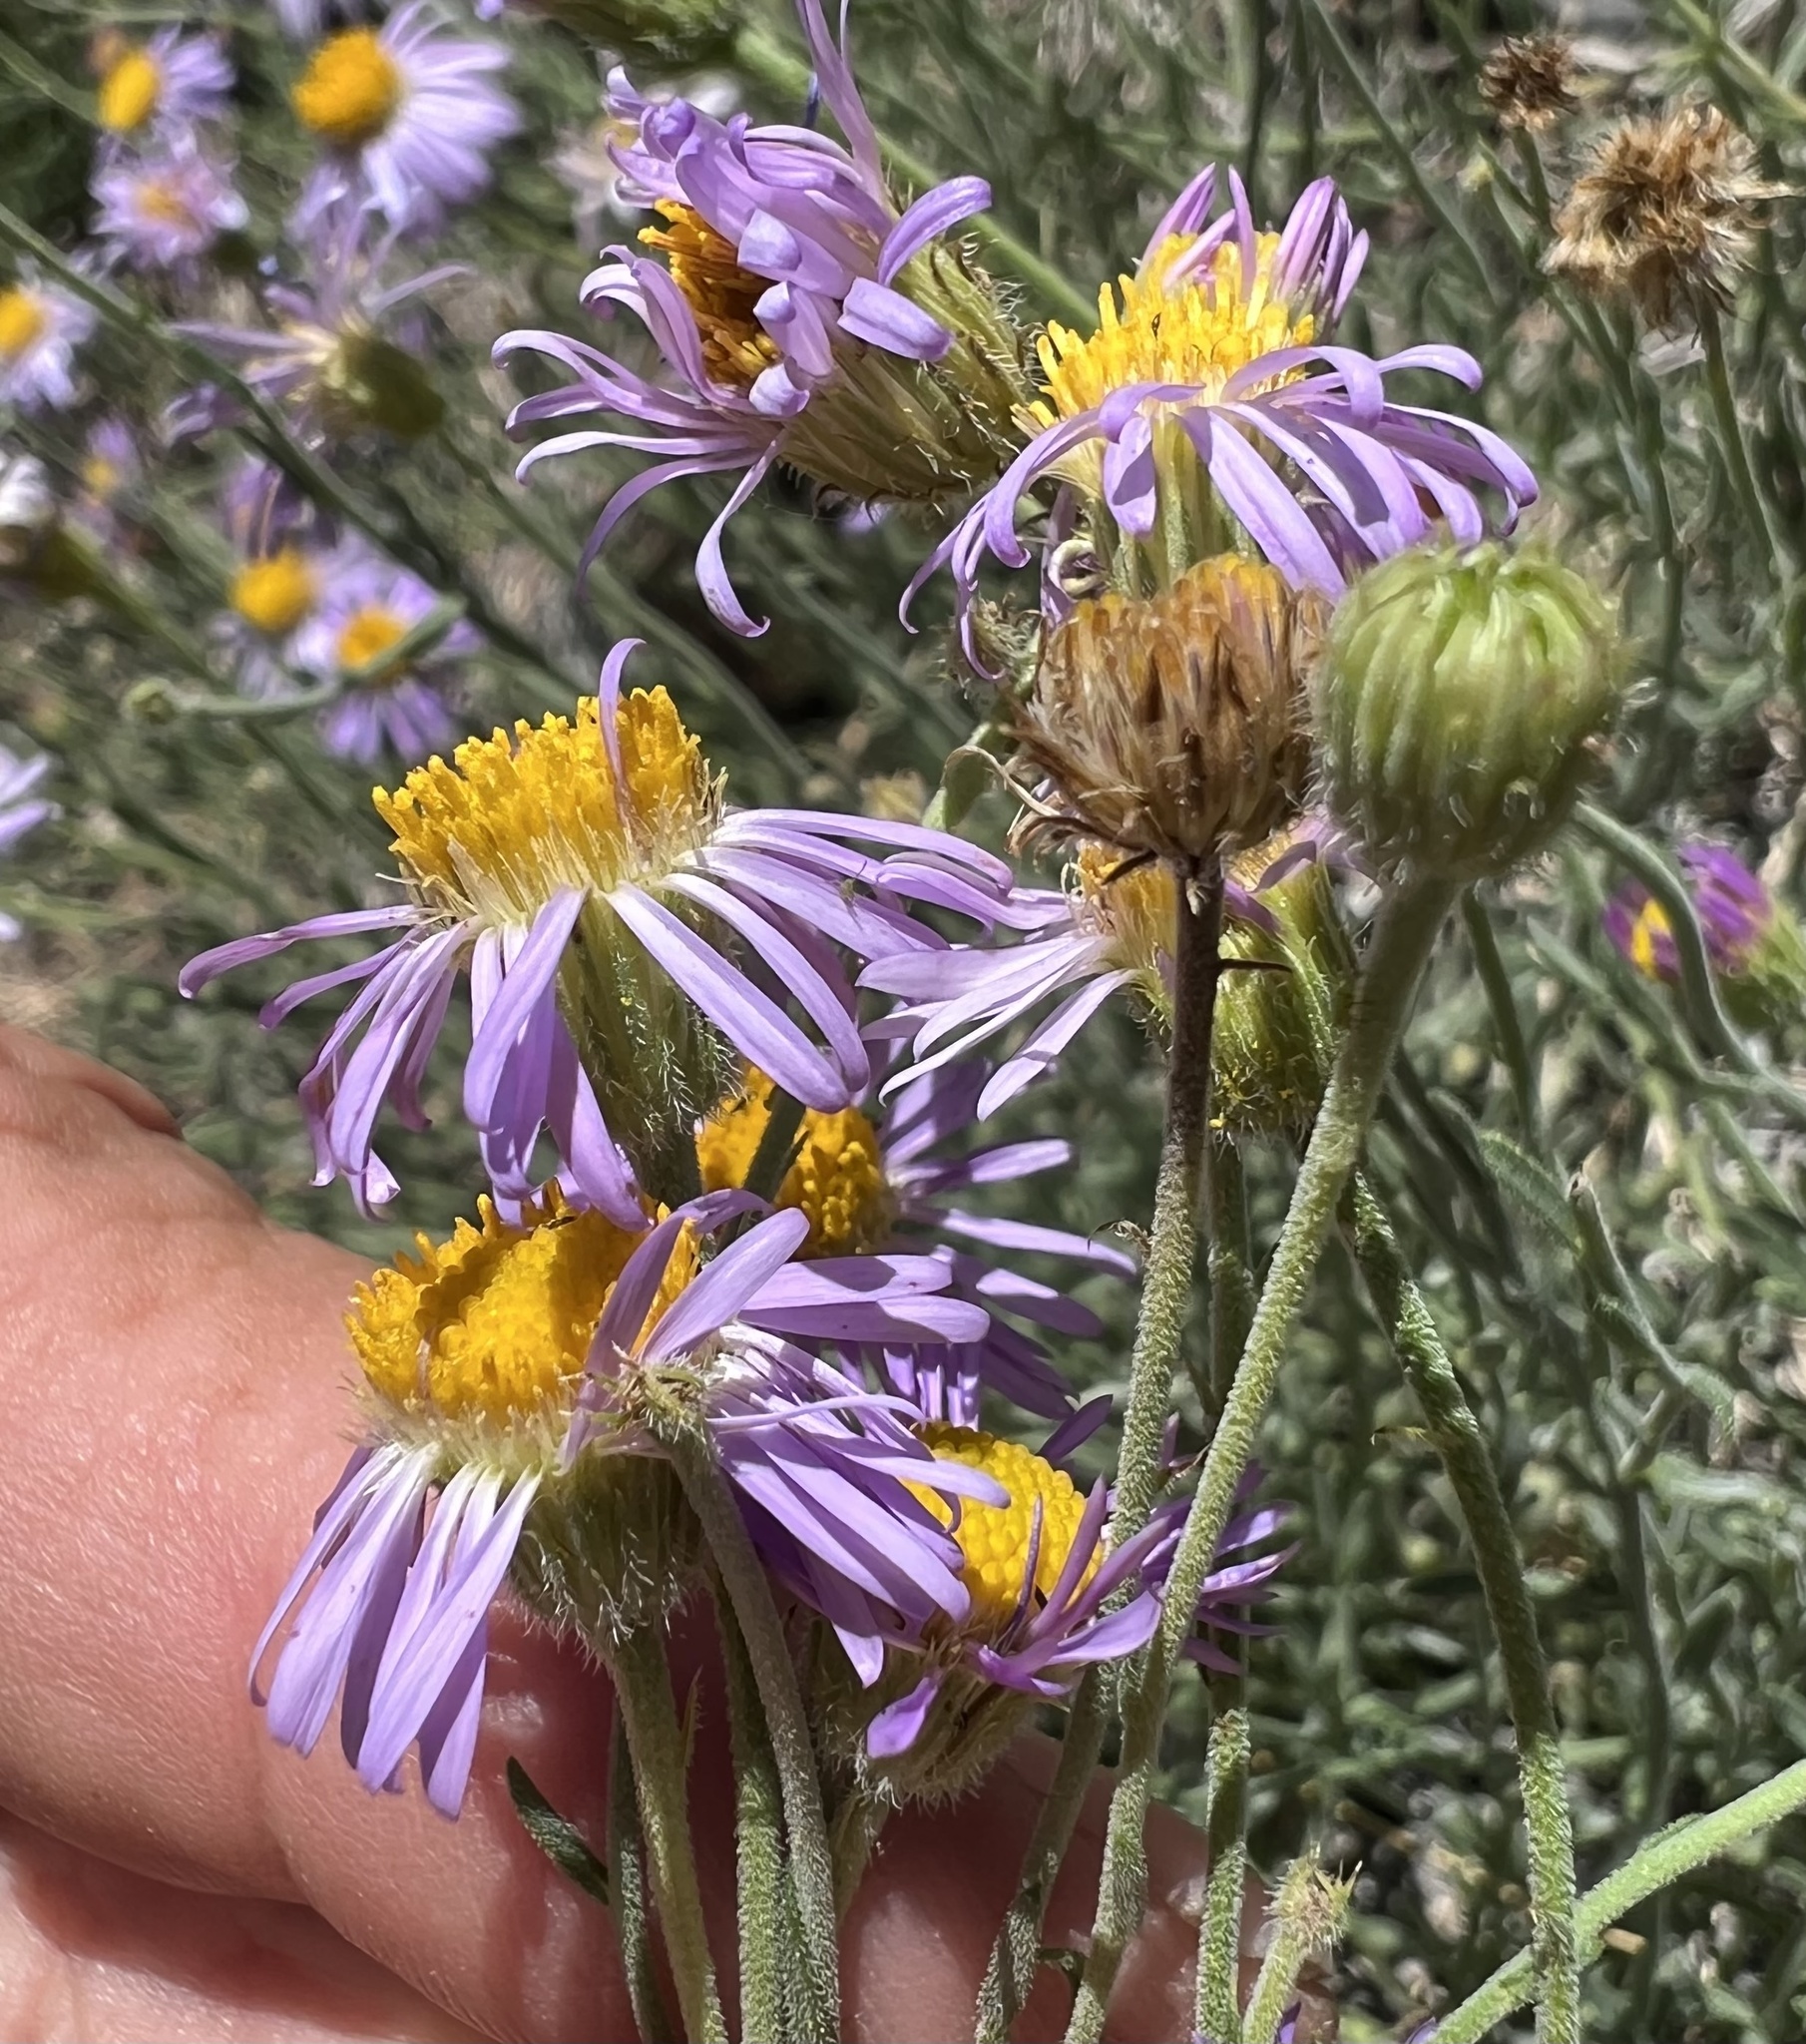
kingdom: Plantae
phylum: Tracheophyta
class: Magnoliopsida
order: Asterales
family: Asteraceae
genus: Erigeron
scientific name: Erigeron breweri
